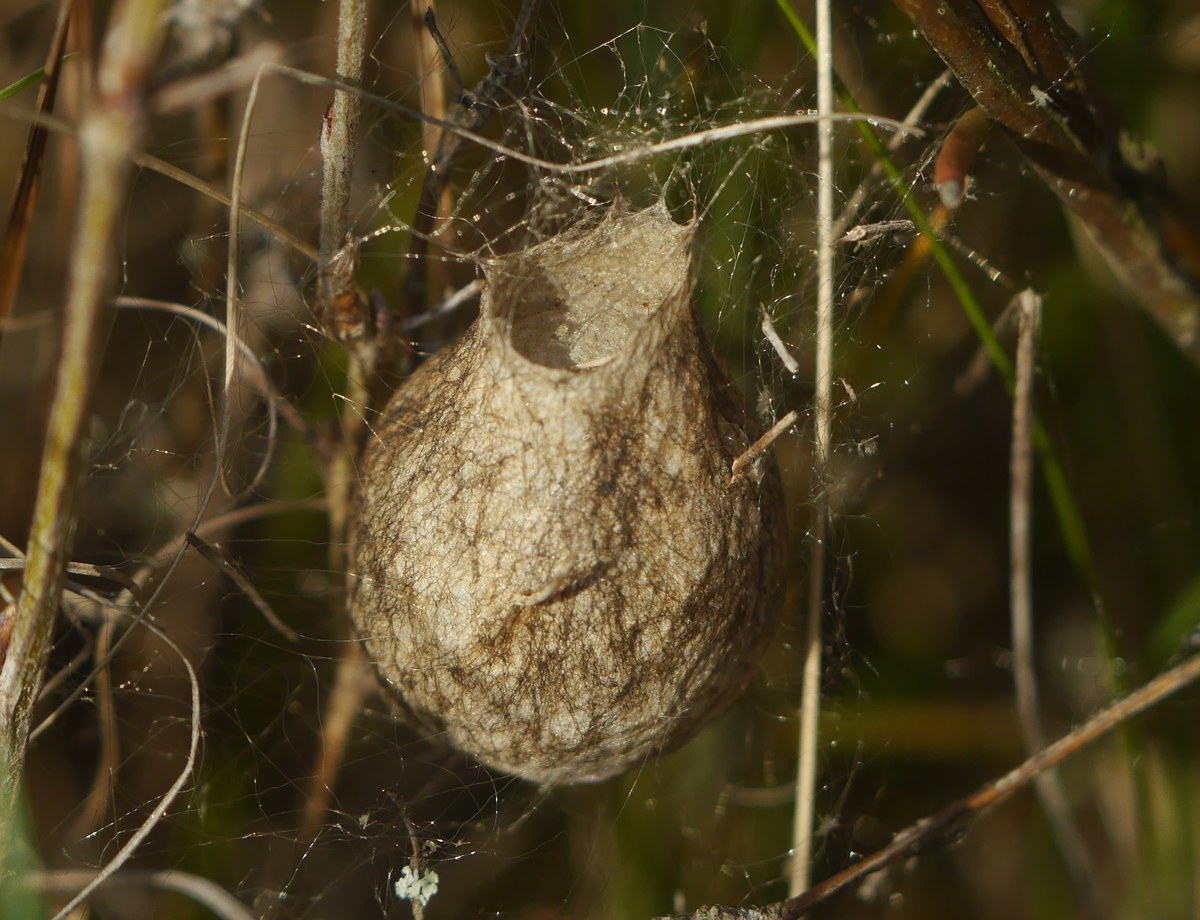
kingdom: Animalia
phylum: Arthropoda
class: Arachnida
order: Araneae
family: Araneidae
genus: Argiope
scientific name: Argiope bruennichi
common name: Wasp spider
